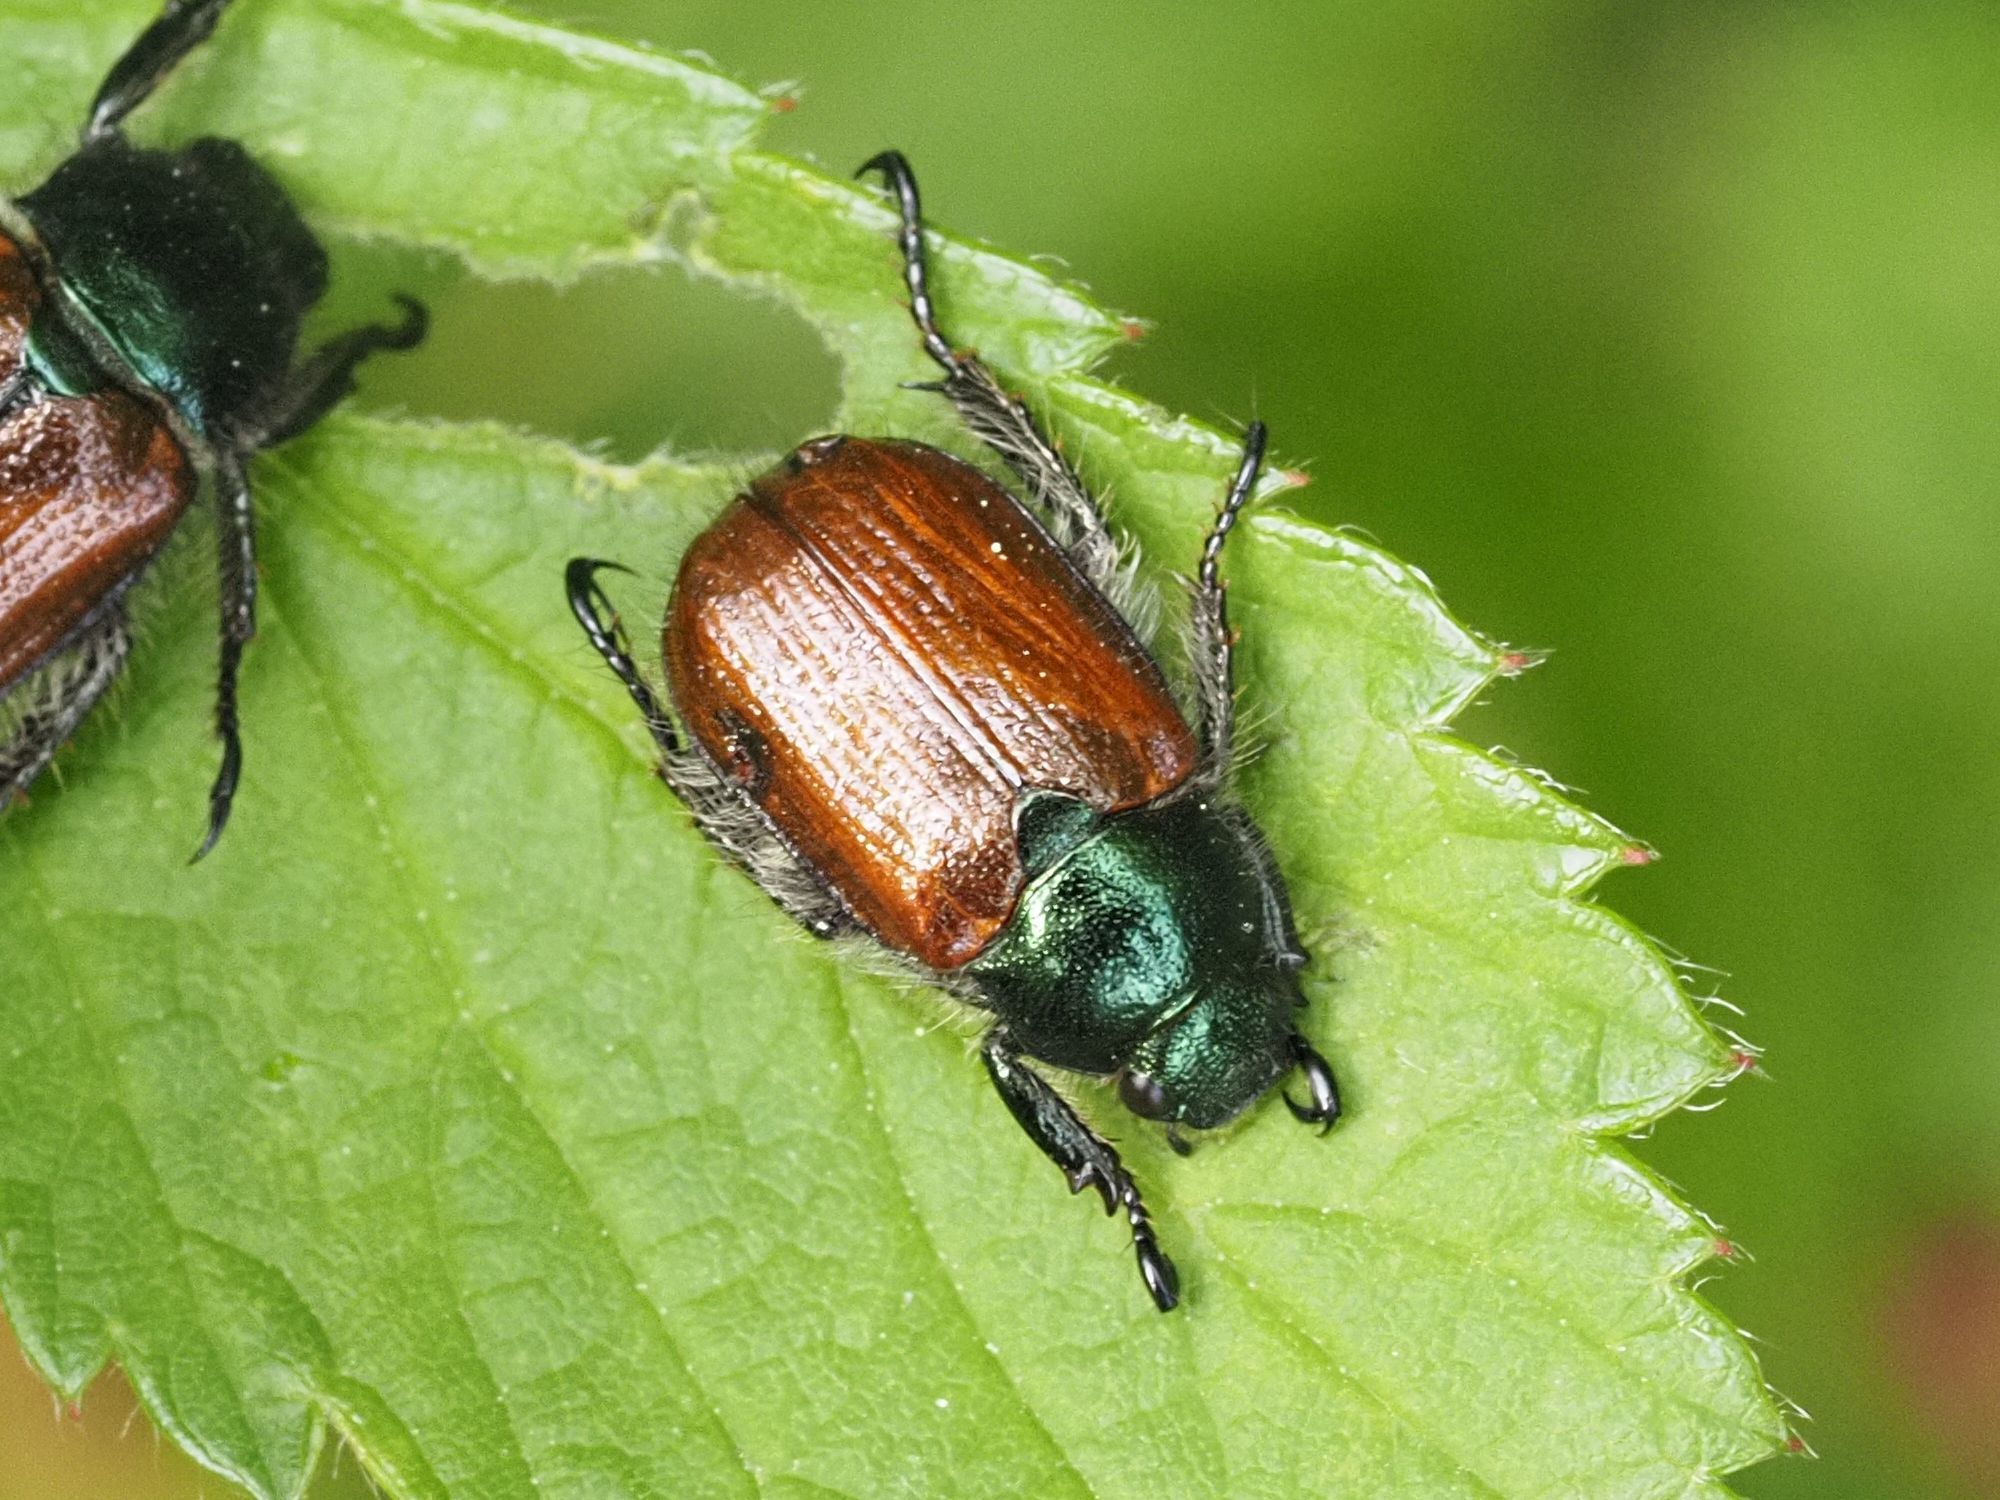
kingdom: Animalia
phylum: Arthropoda
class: Insecta
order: Coleoptera
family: Scarabaeidae
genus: Phyllopertha
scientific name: Phyllopertha horticola
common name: Garden chafer
